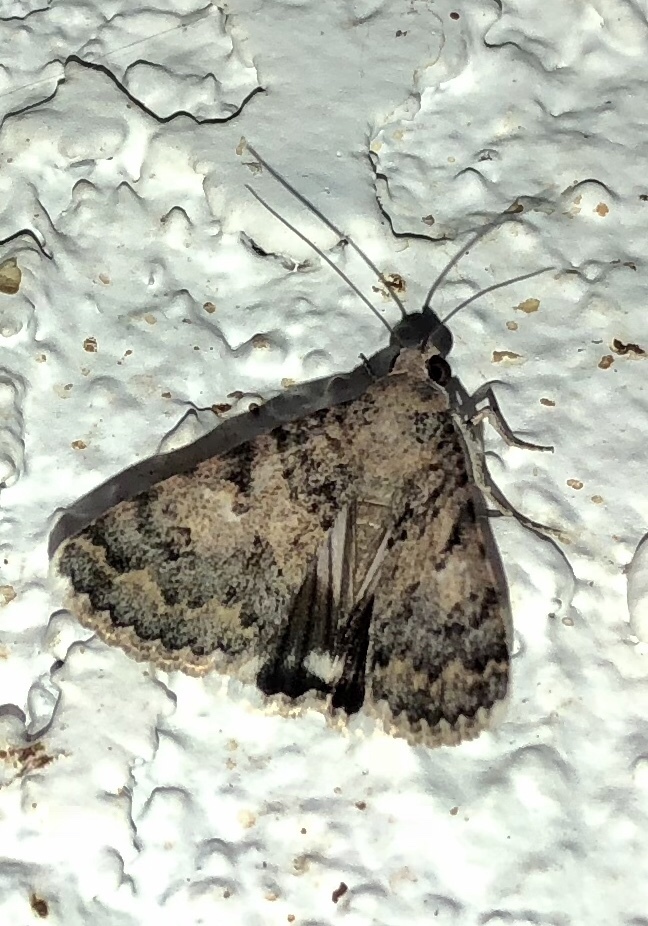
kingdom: Animalia
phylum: Arthropoda
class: Insecta
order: Lepidoptera
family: Erebidae
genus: Melipotis
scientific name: Melipotis jucunda
